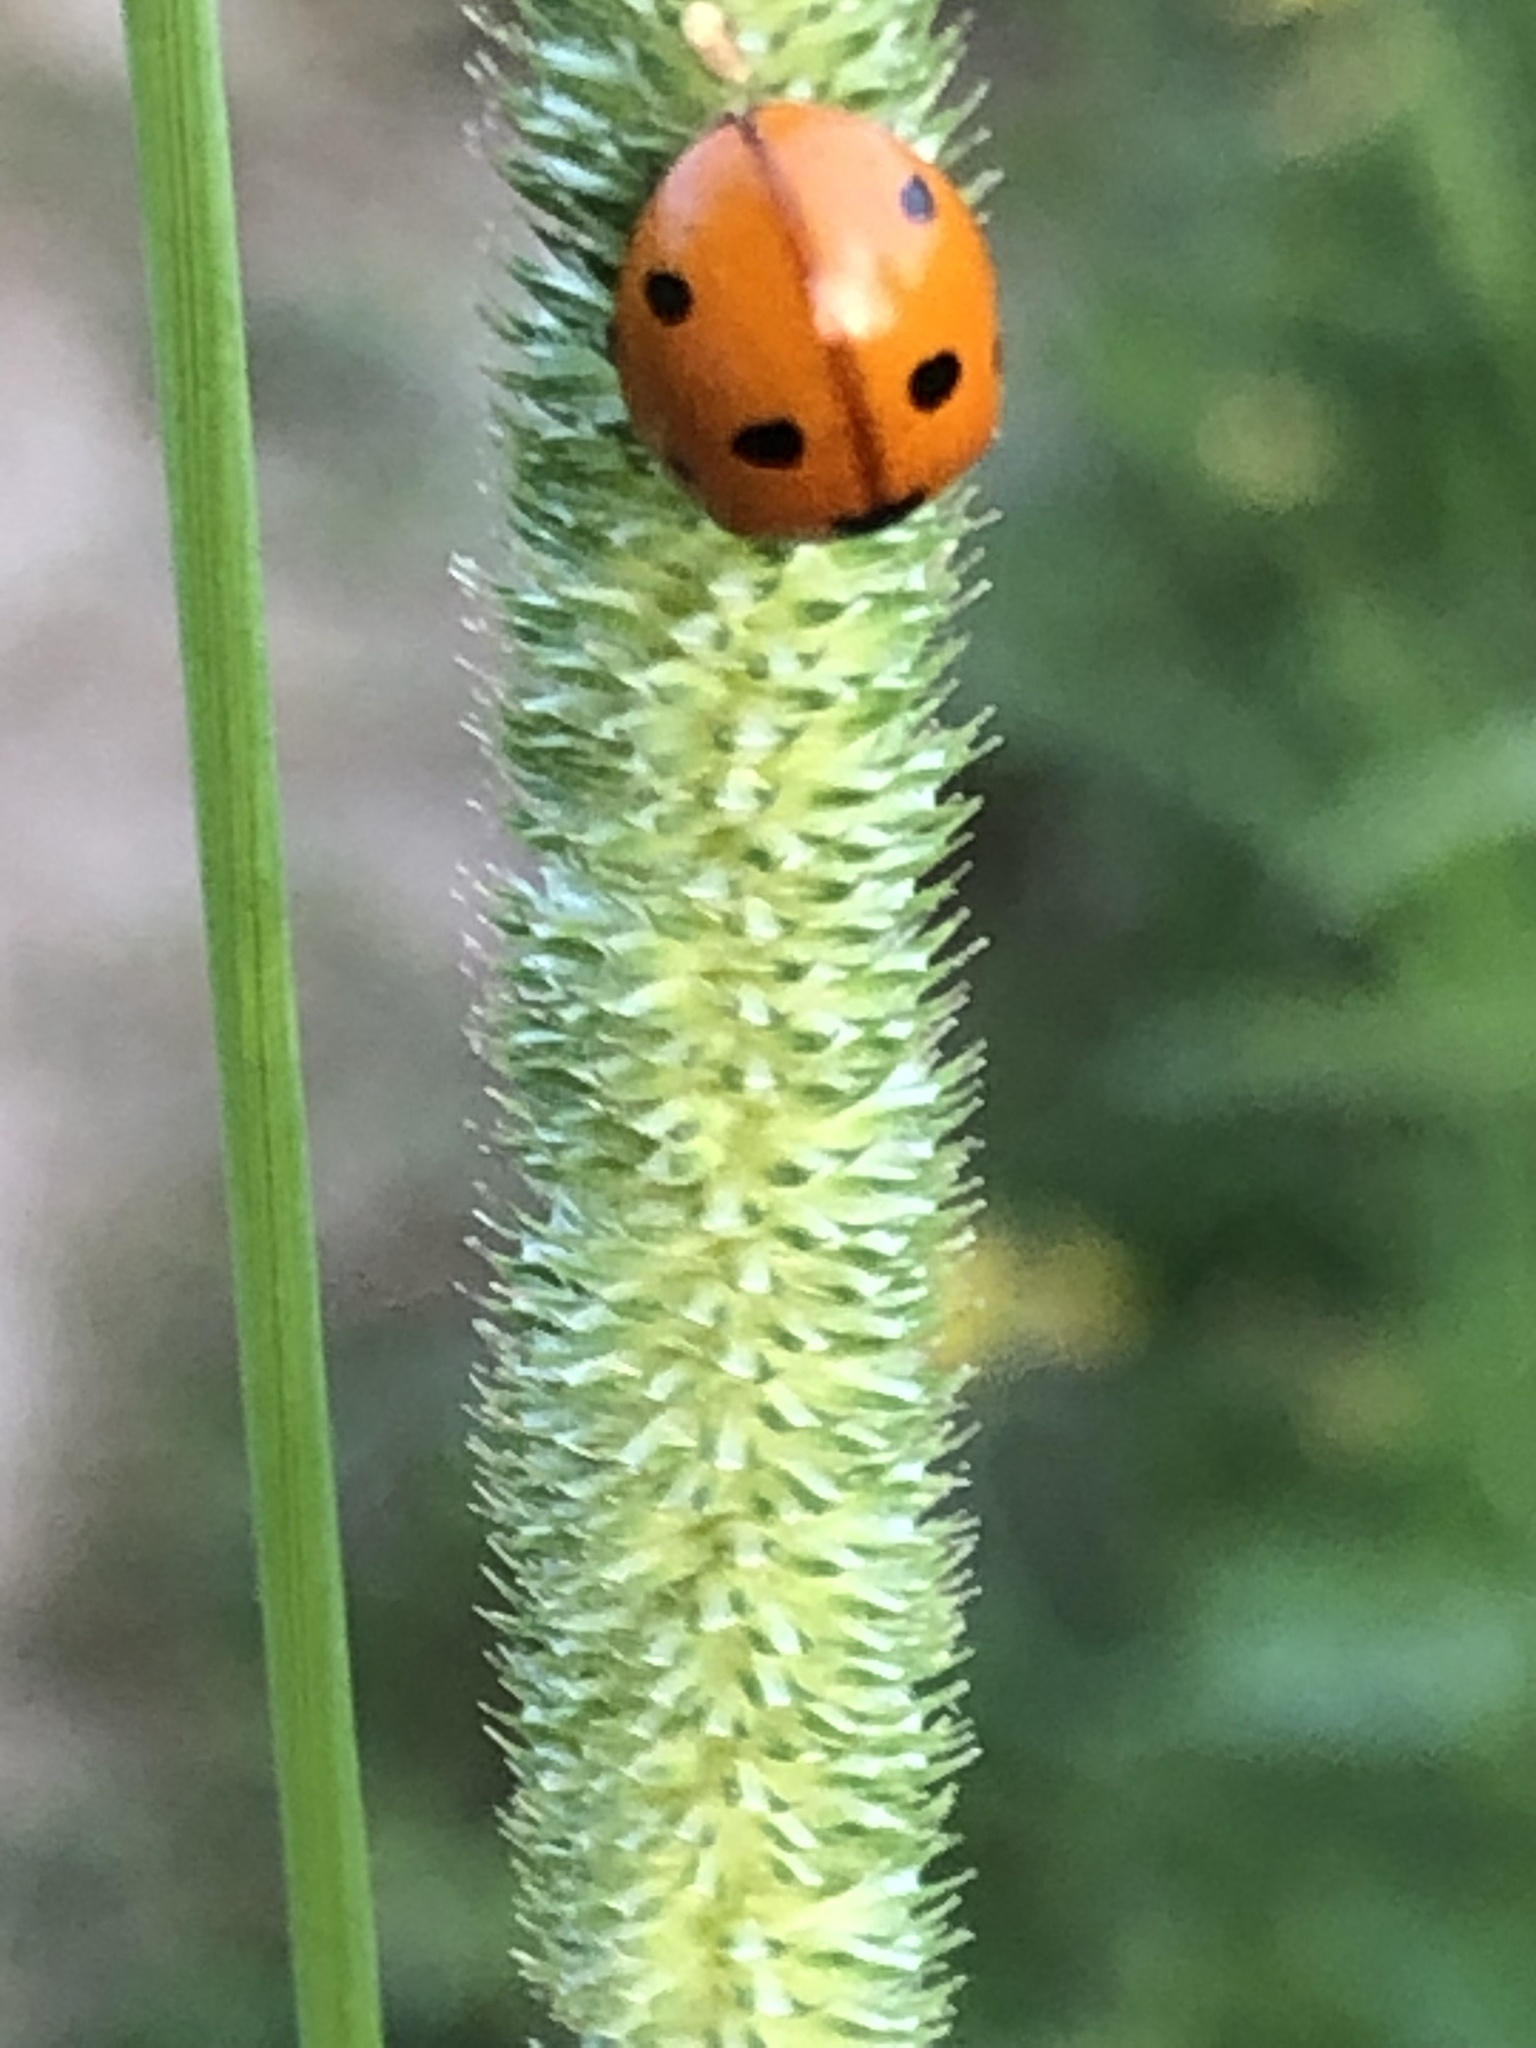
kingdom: Animalia
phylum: Arthropoda
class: Insecta
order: Coleoptera
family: Coccinellidae
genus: Coccinella
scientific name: Coccinella septempunctata
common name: Sevenspotted lady beetle
